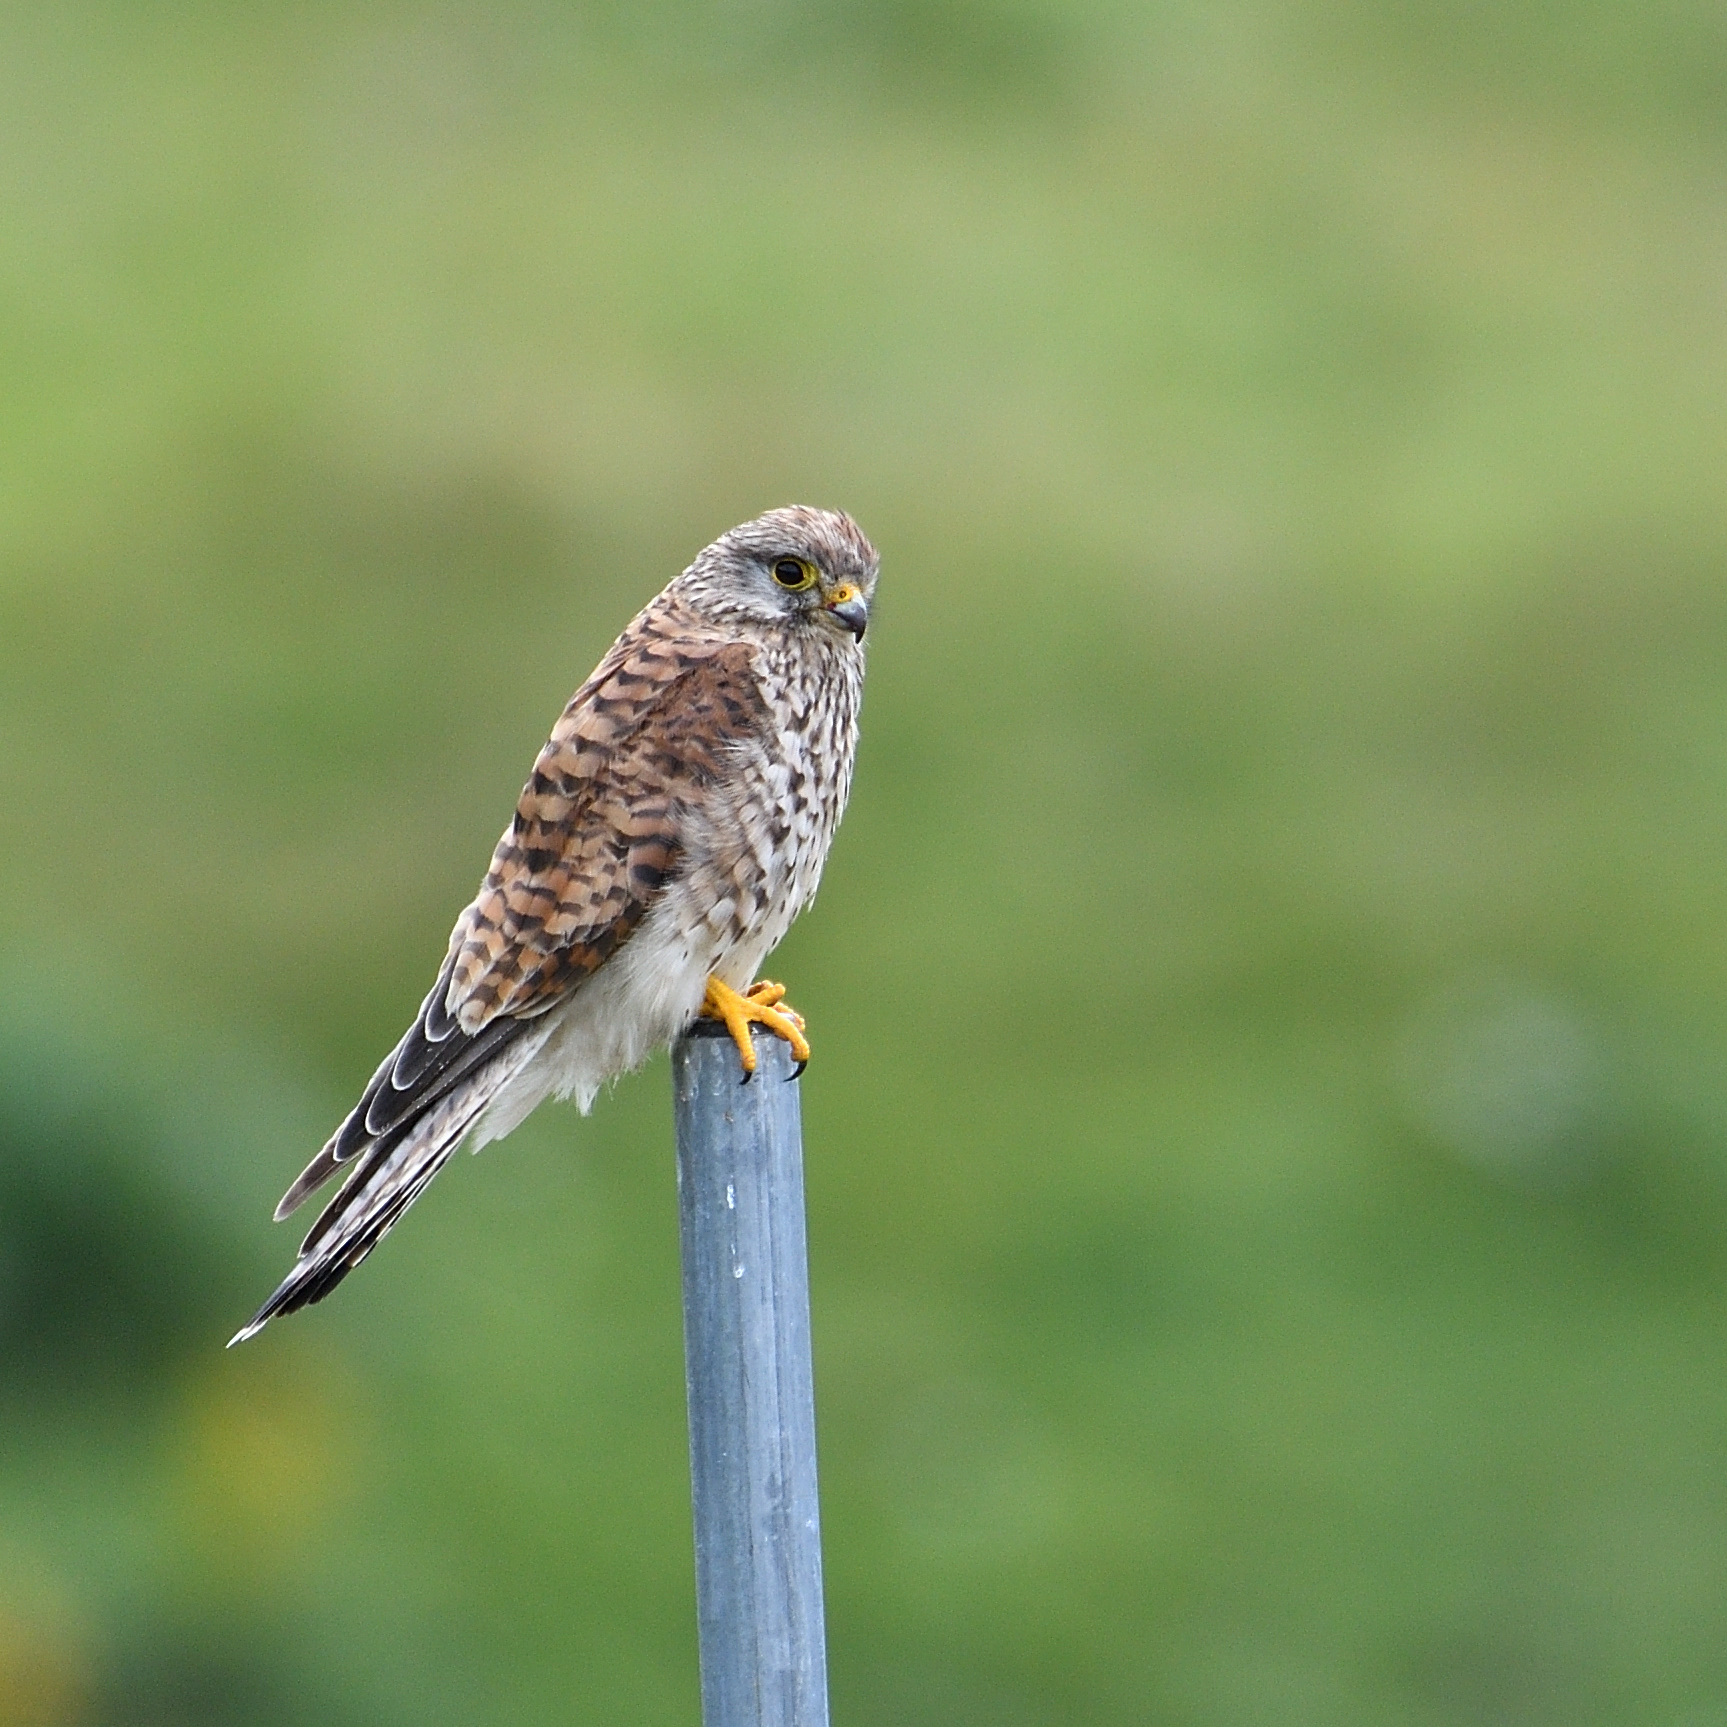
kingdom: Animalia
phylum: Chordata
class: Aves
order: Falconiformes
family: Falconidae
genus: Falco
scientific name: Falco tinnunculus
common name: Common kestrel
